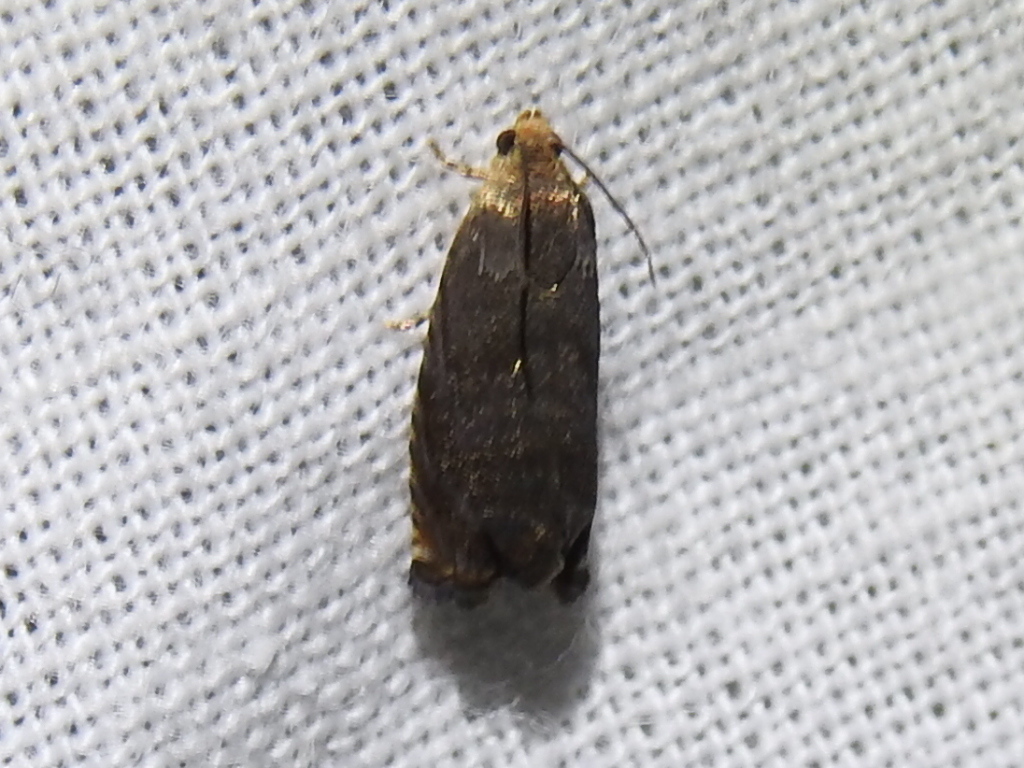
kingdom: Animalia
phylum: Arthropoda
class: Insecta
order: Lepidoptera
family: Tortricidae
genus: Cydia
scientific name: Cydia caryana
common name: Hickory shuckworm moth
